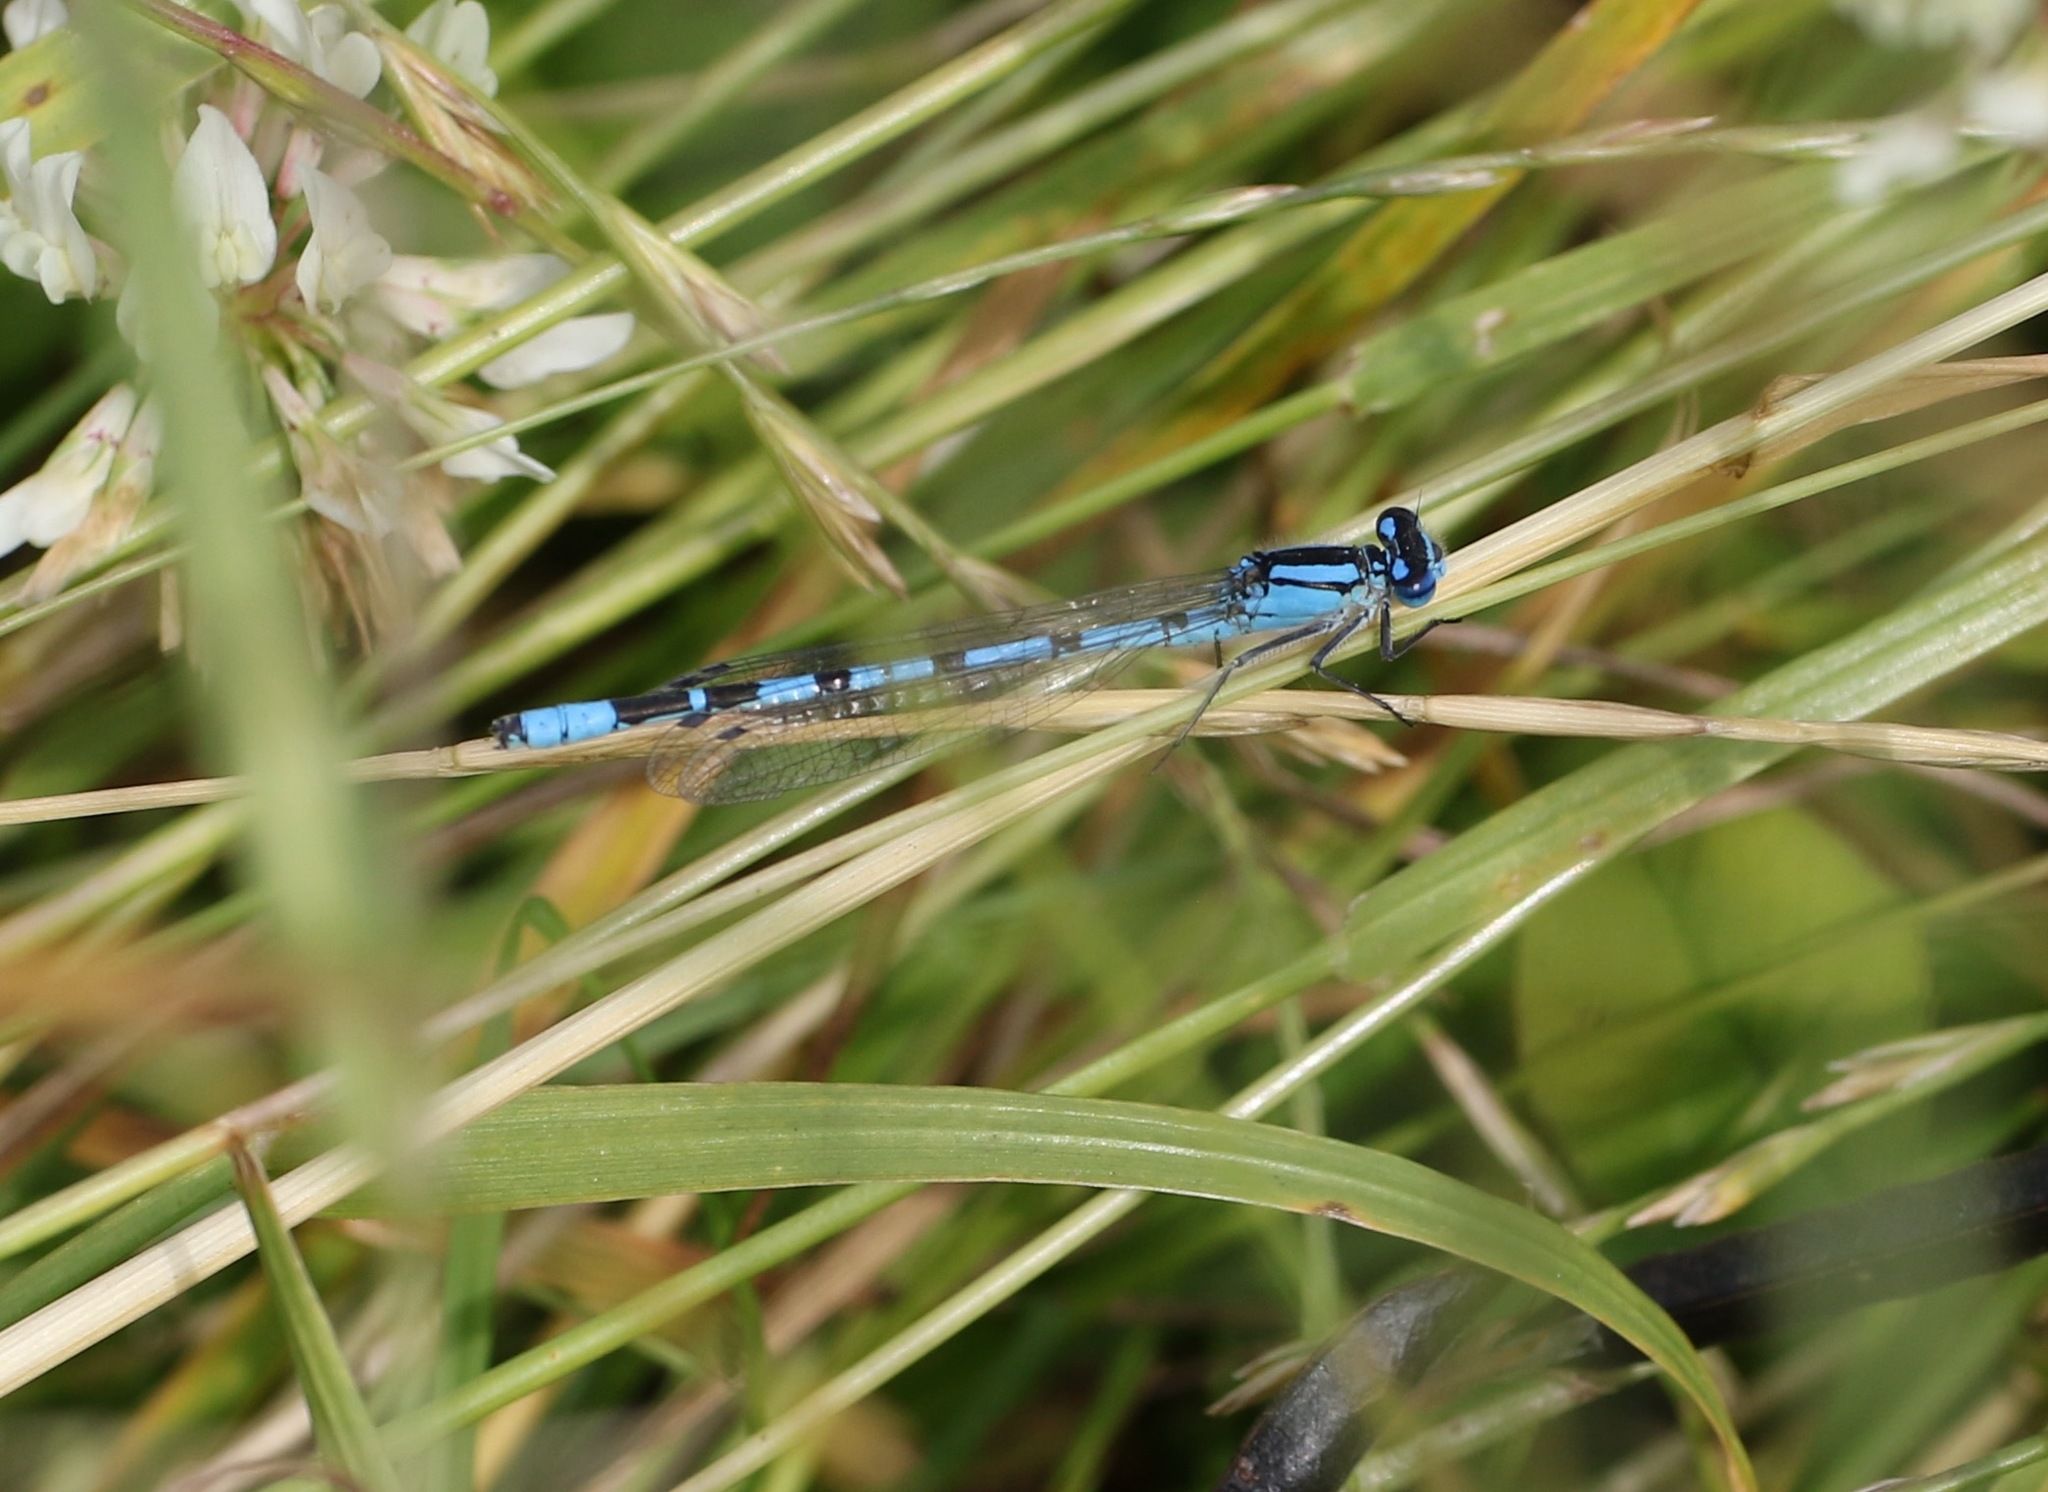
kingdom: Animalia
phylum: Arthropoda
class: Insecta
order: Odonata
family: Coenagrionidae
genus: Enallagma
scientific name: Enallagma cyathigerum
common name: Common blue damselfly
